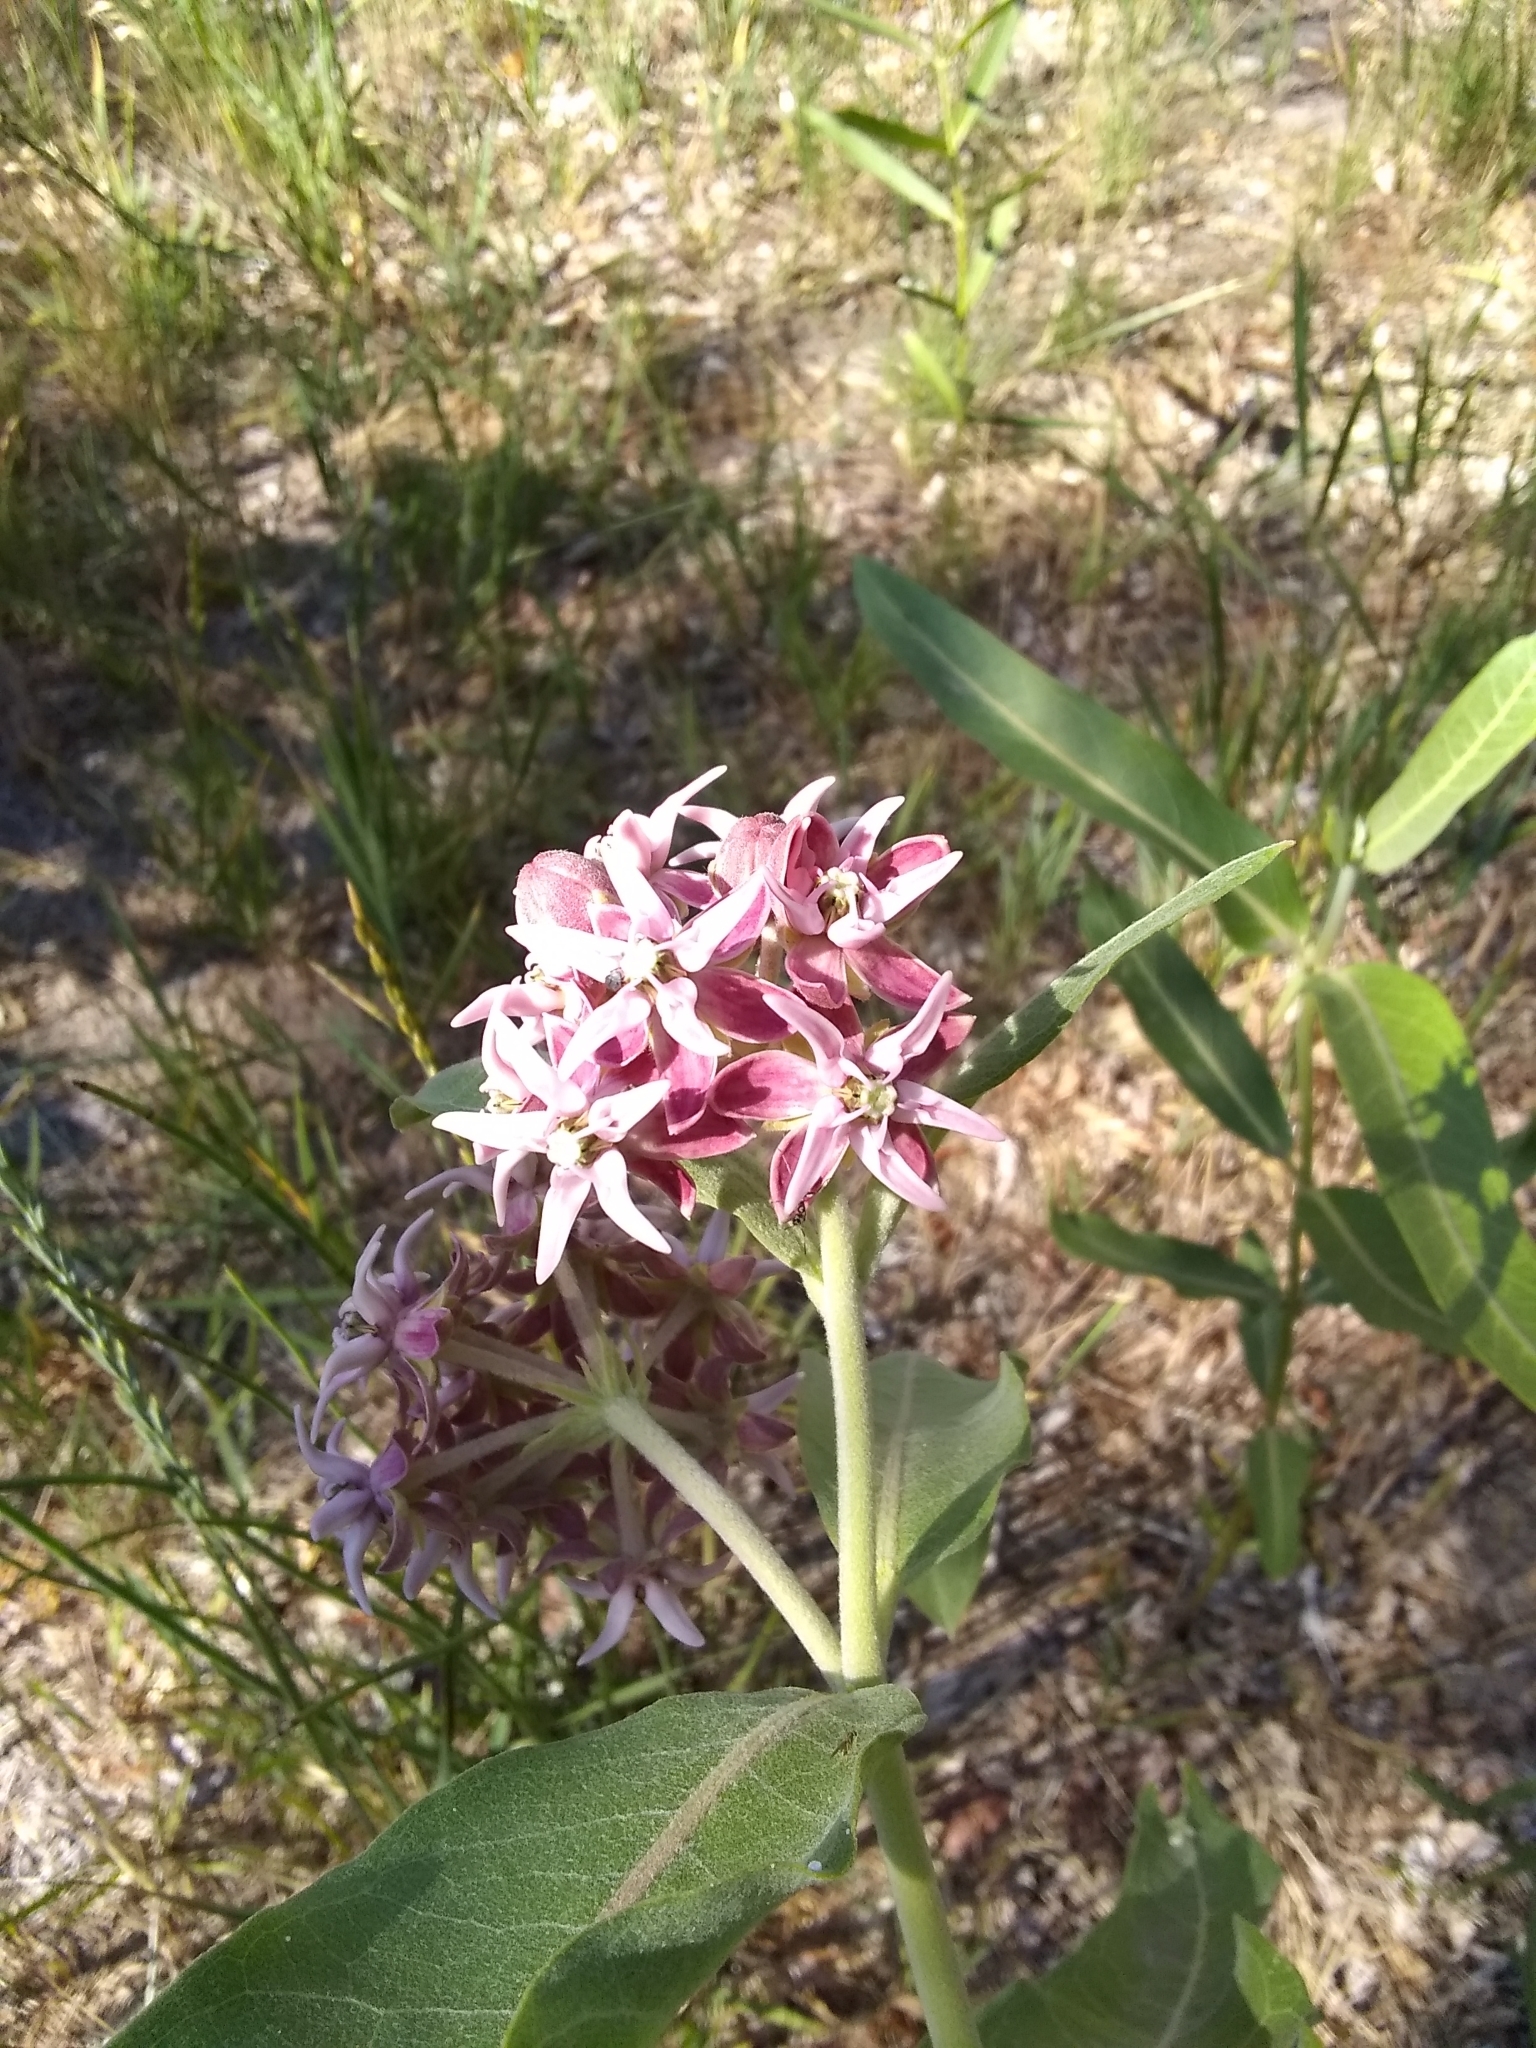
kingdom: Plantae
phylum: Tracheophyta
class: Magnoliopsida
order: Gentianales
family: Apocynaceae
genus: Asclepias
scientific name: Asclepias speciosa
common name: Showy milkweed
